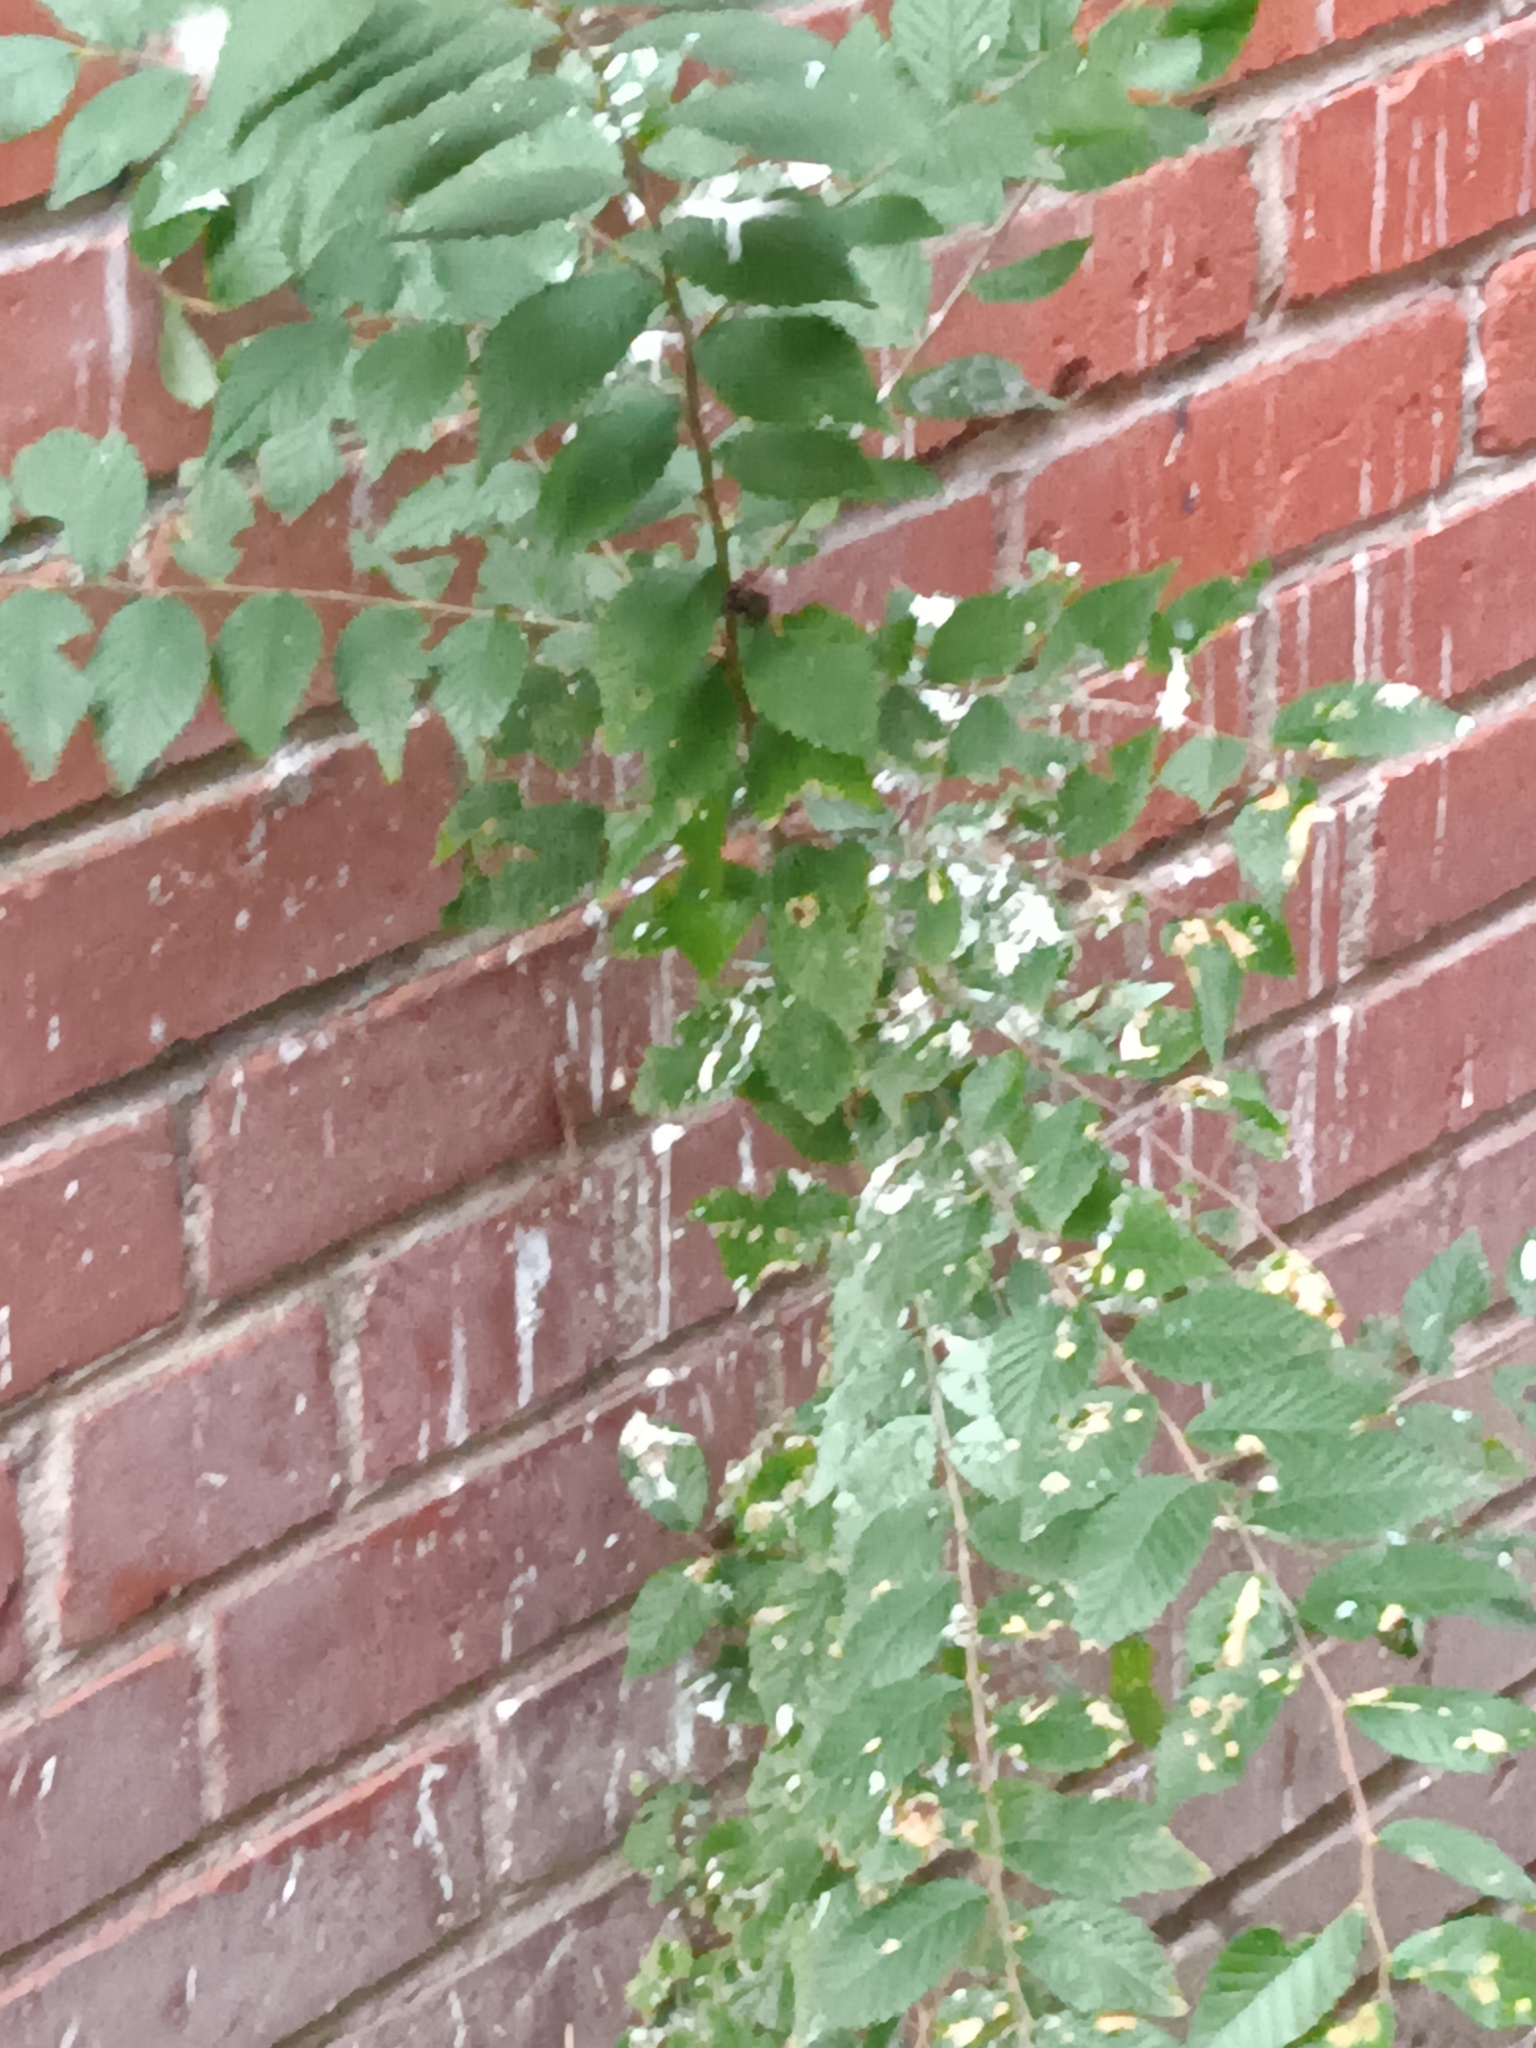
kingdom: Plantae
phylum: Tracheophyta
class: Magnoliopsida
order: Rosales
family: Ulmaceae
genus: Ulmus
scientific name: Ulmus pumila
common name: Siberian elm
